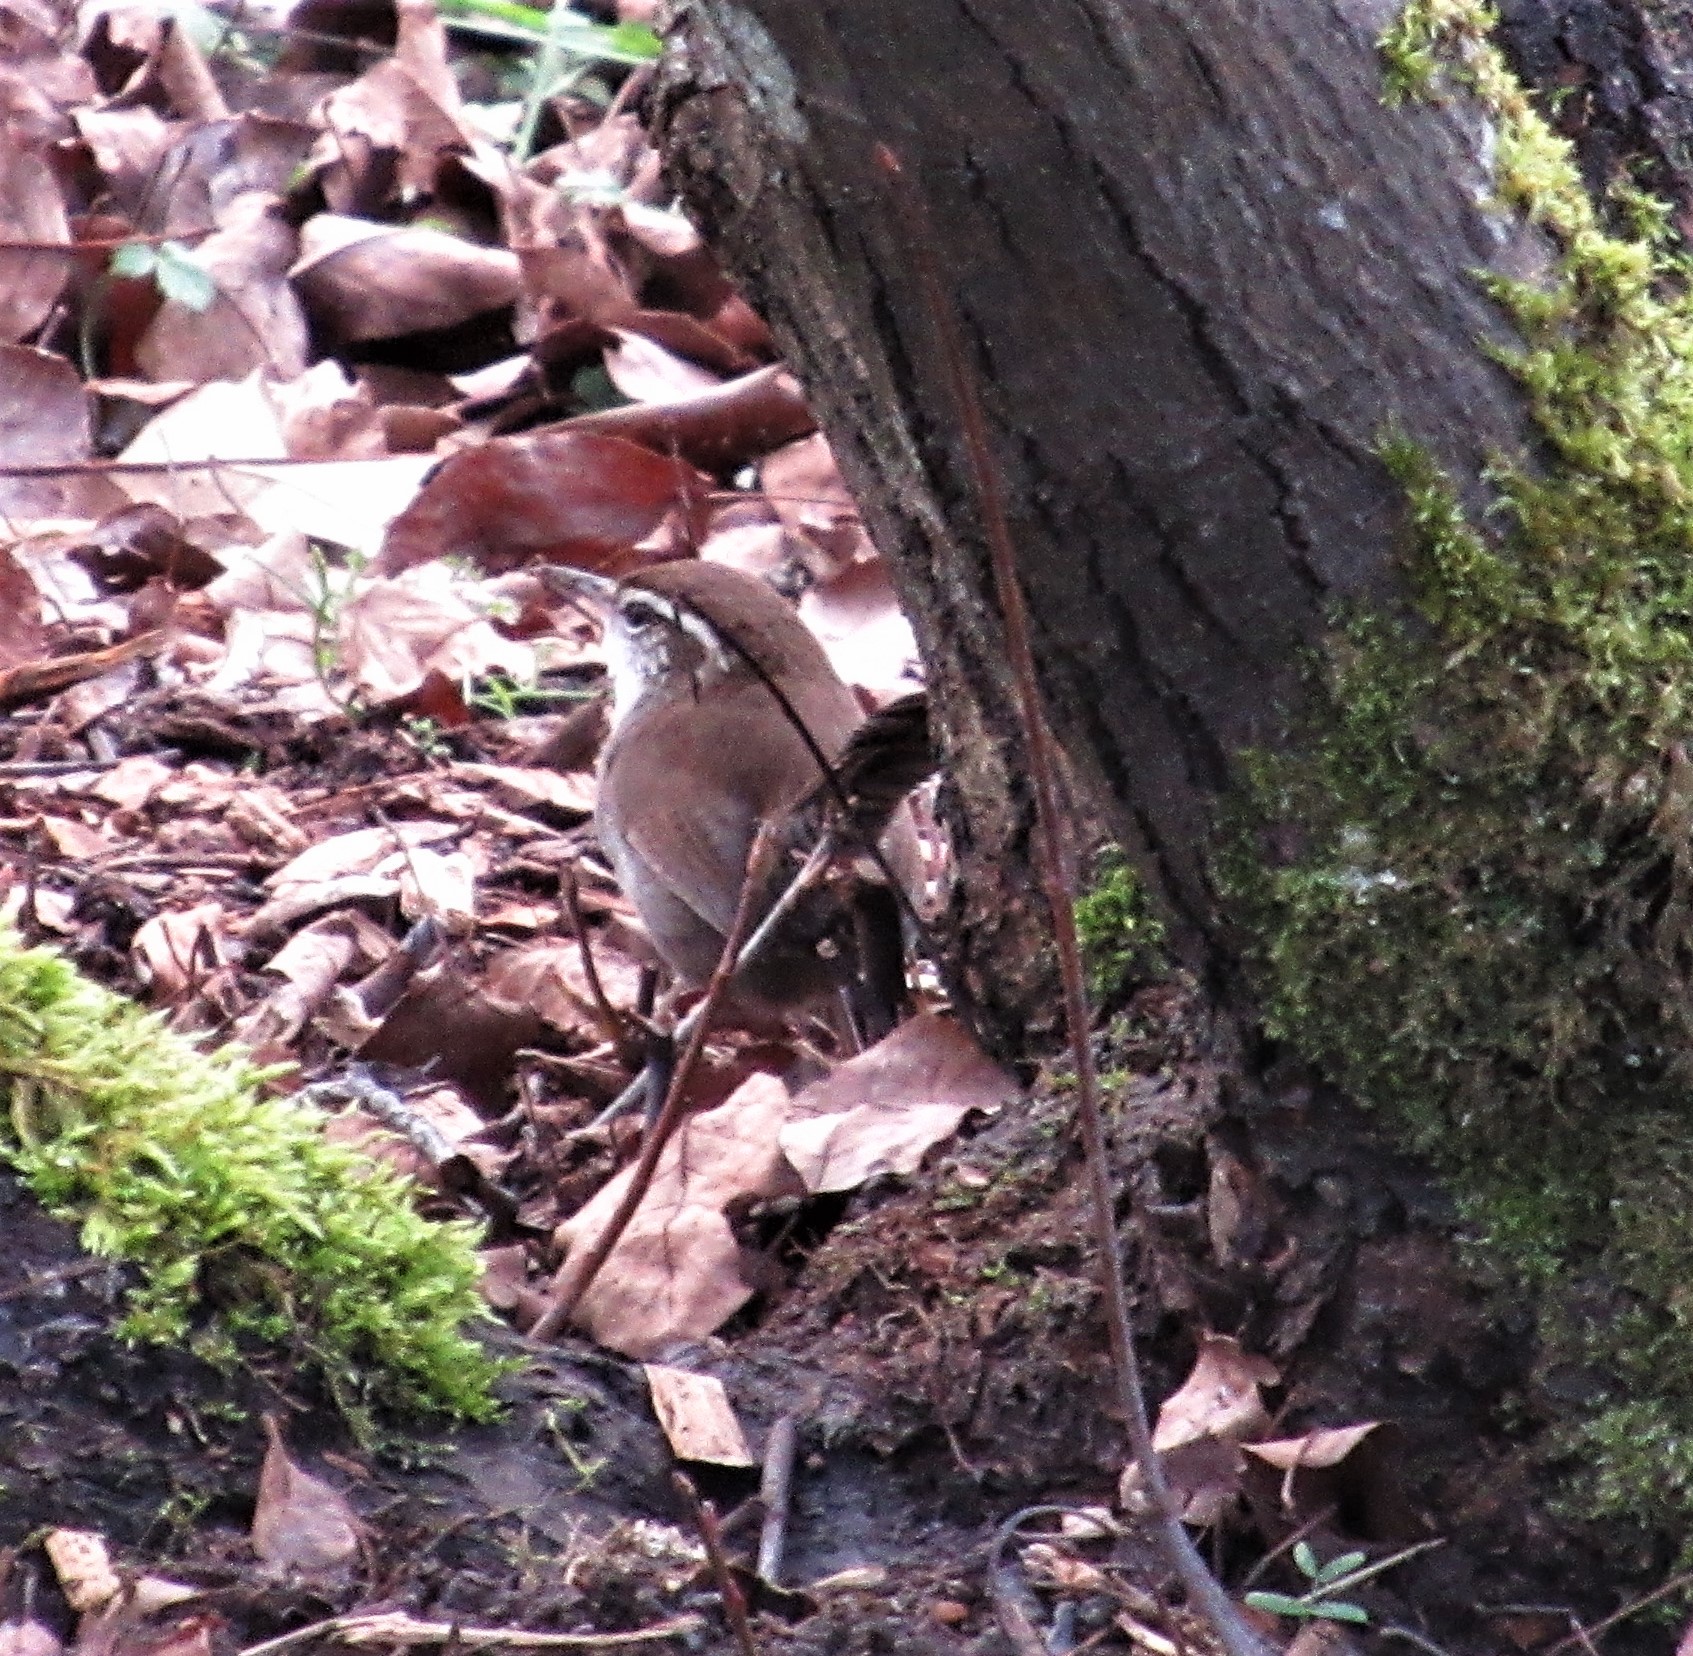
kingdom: Animalia
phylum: Chordata
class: Aves
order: Passeriformes
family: Troglodytidae
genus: Thryomanes
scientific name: Thryomanes bewickii
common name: Bewick's wren
